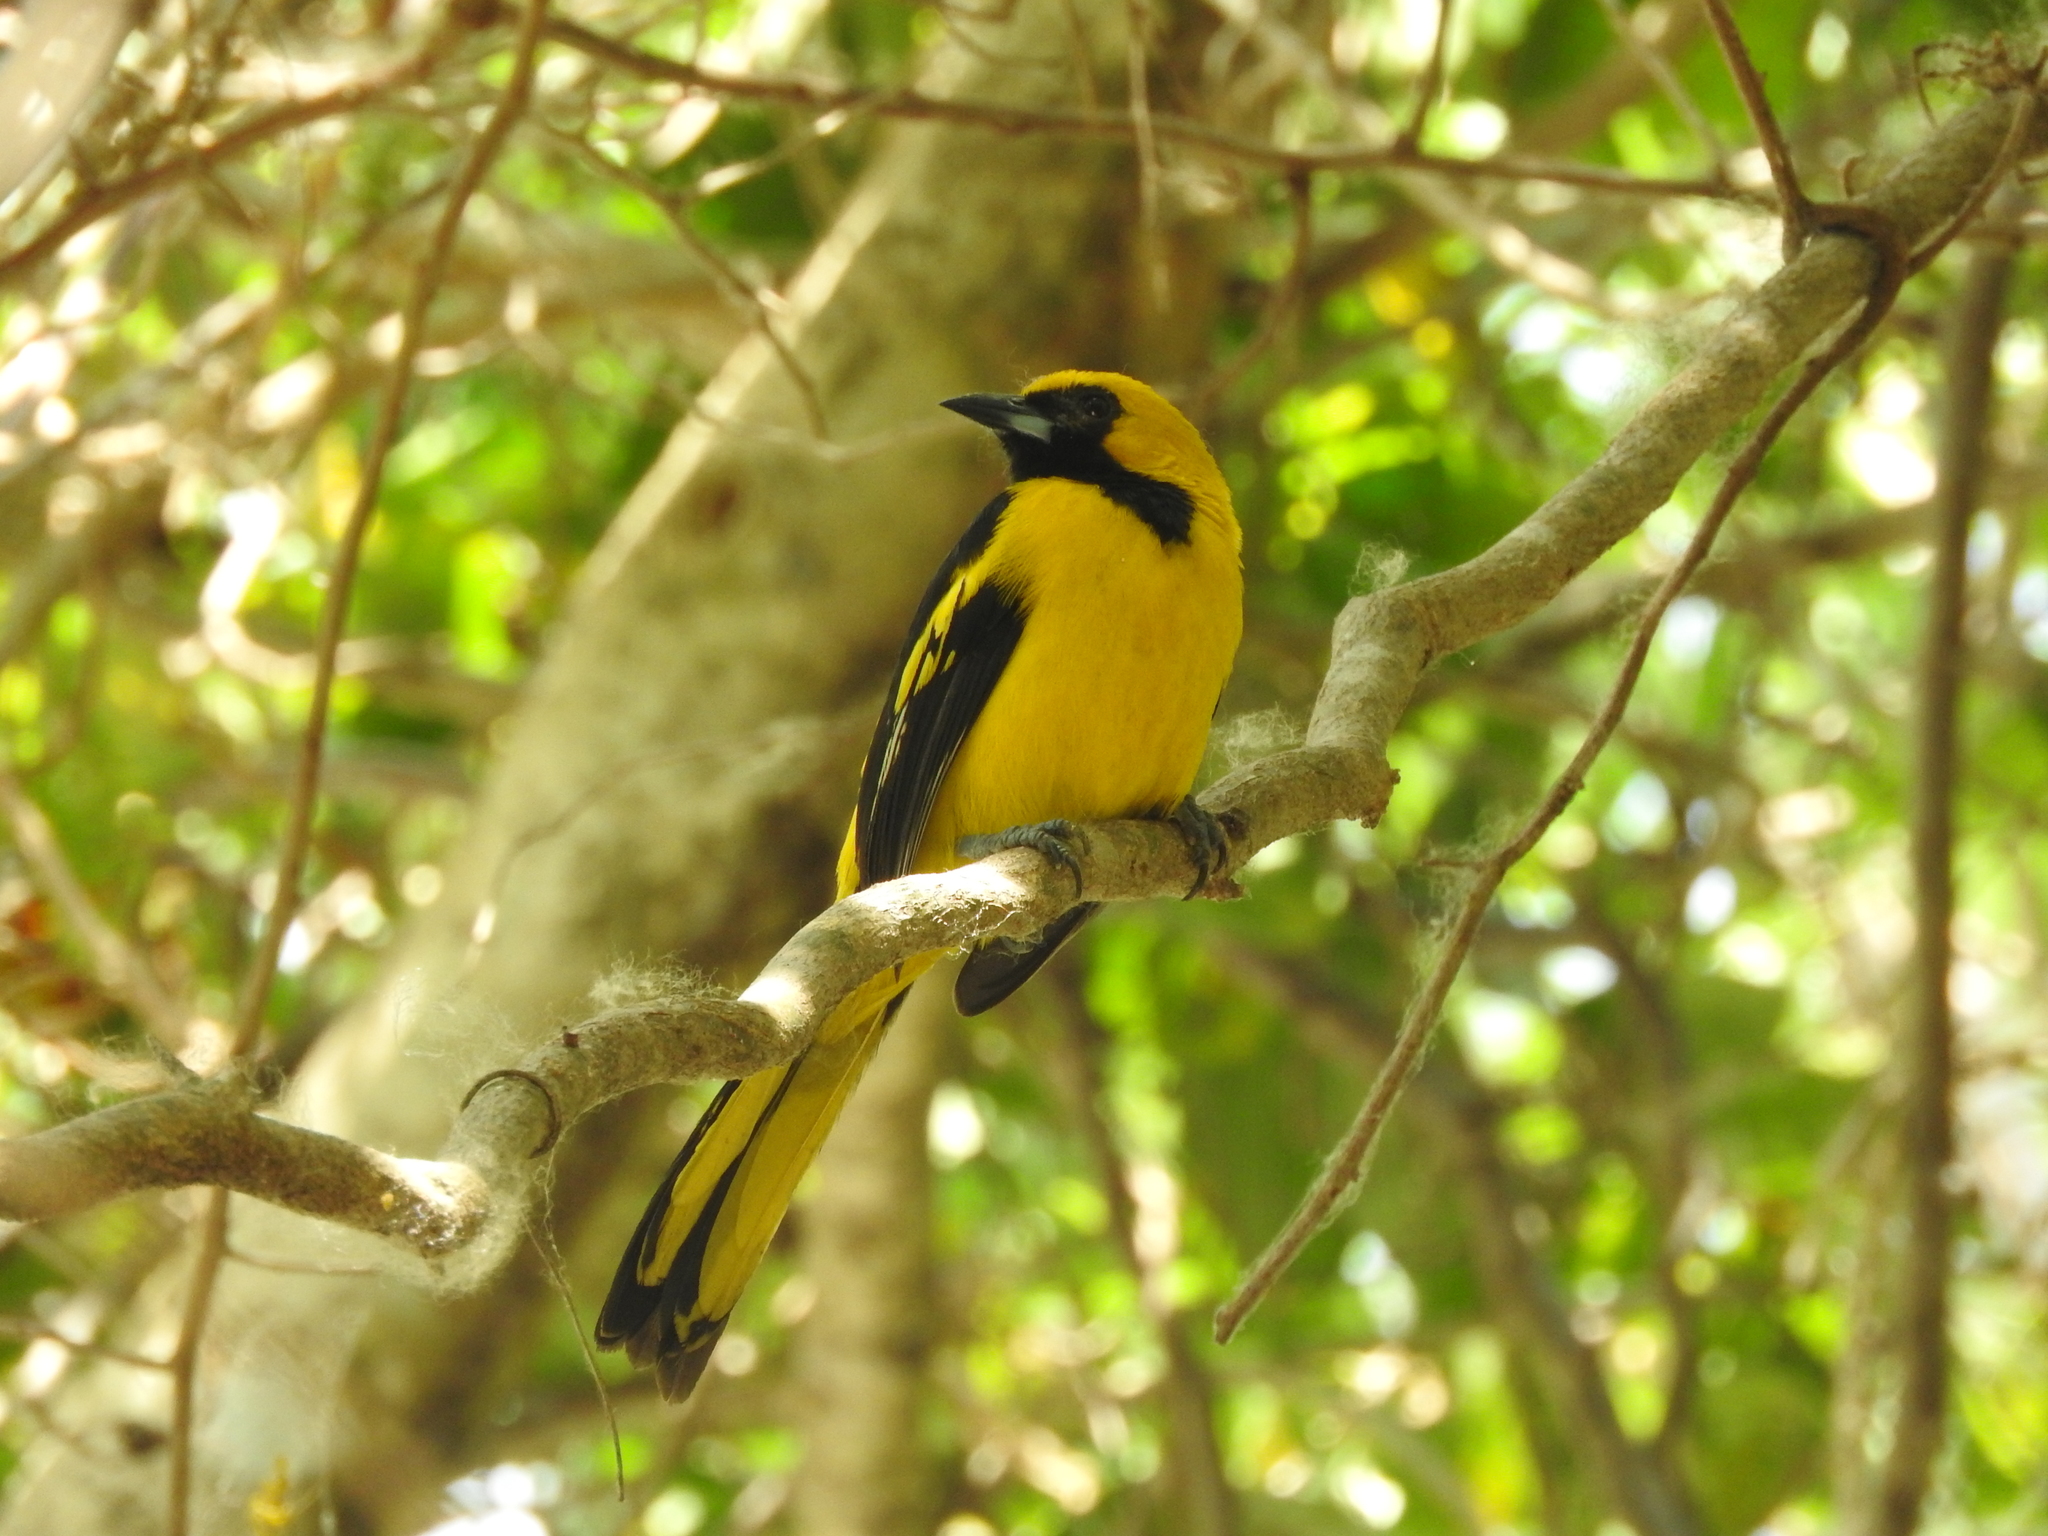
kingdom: Animalia
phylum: Chordata
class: Aves
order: Passeriformes
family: Icteridae
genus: Icterus
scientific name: Icterus mesomelas
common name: Yellow-tailed oriole
